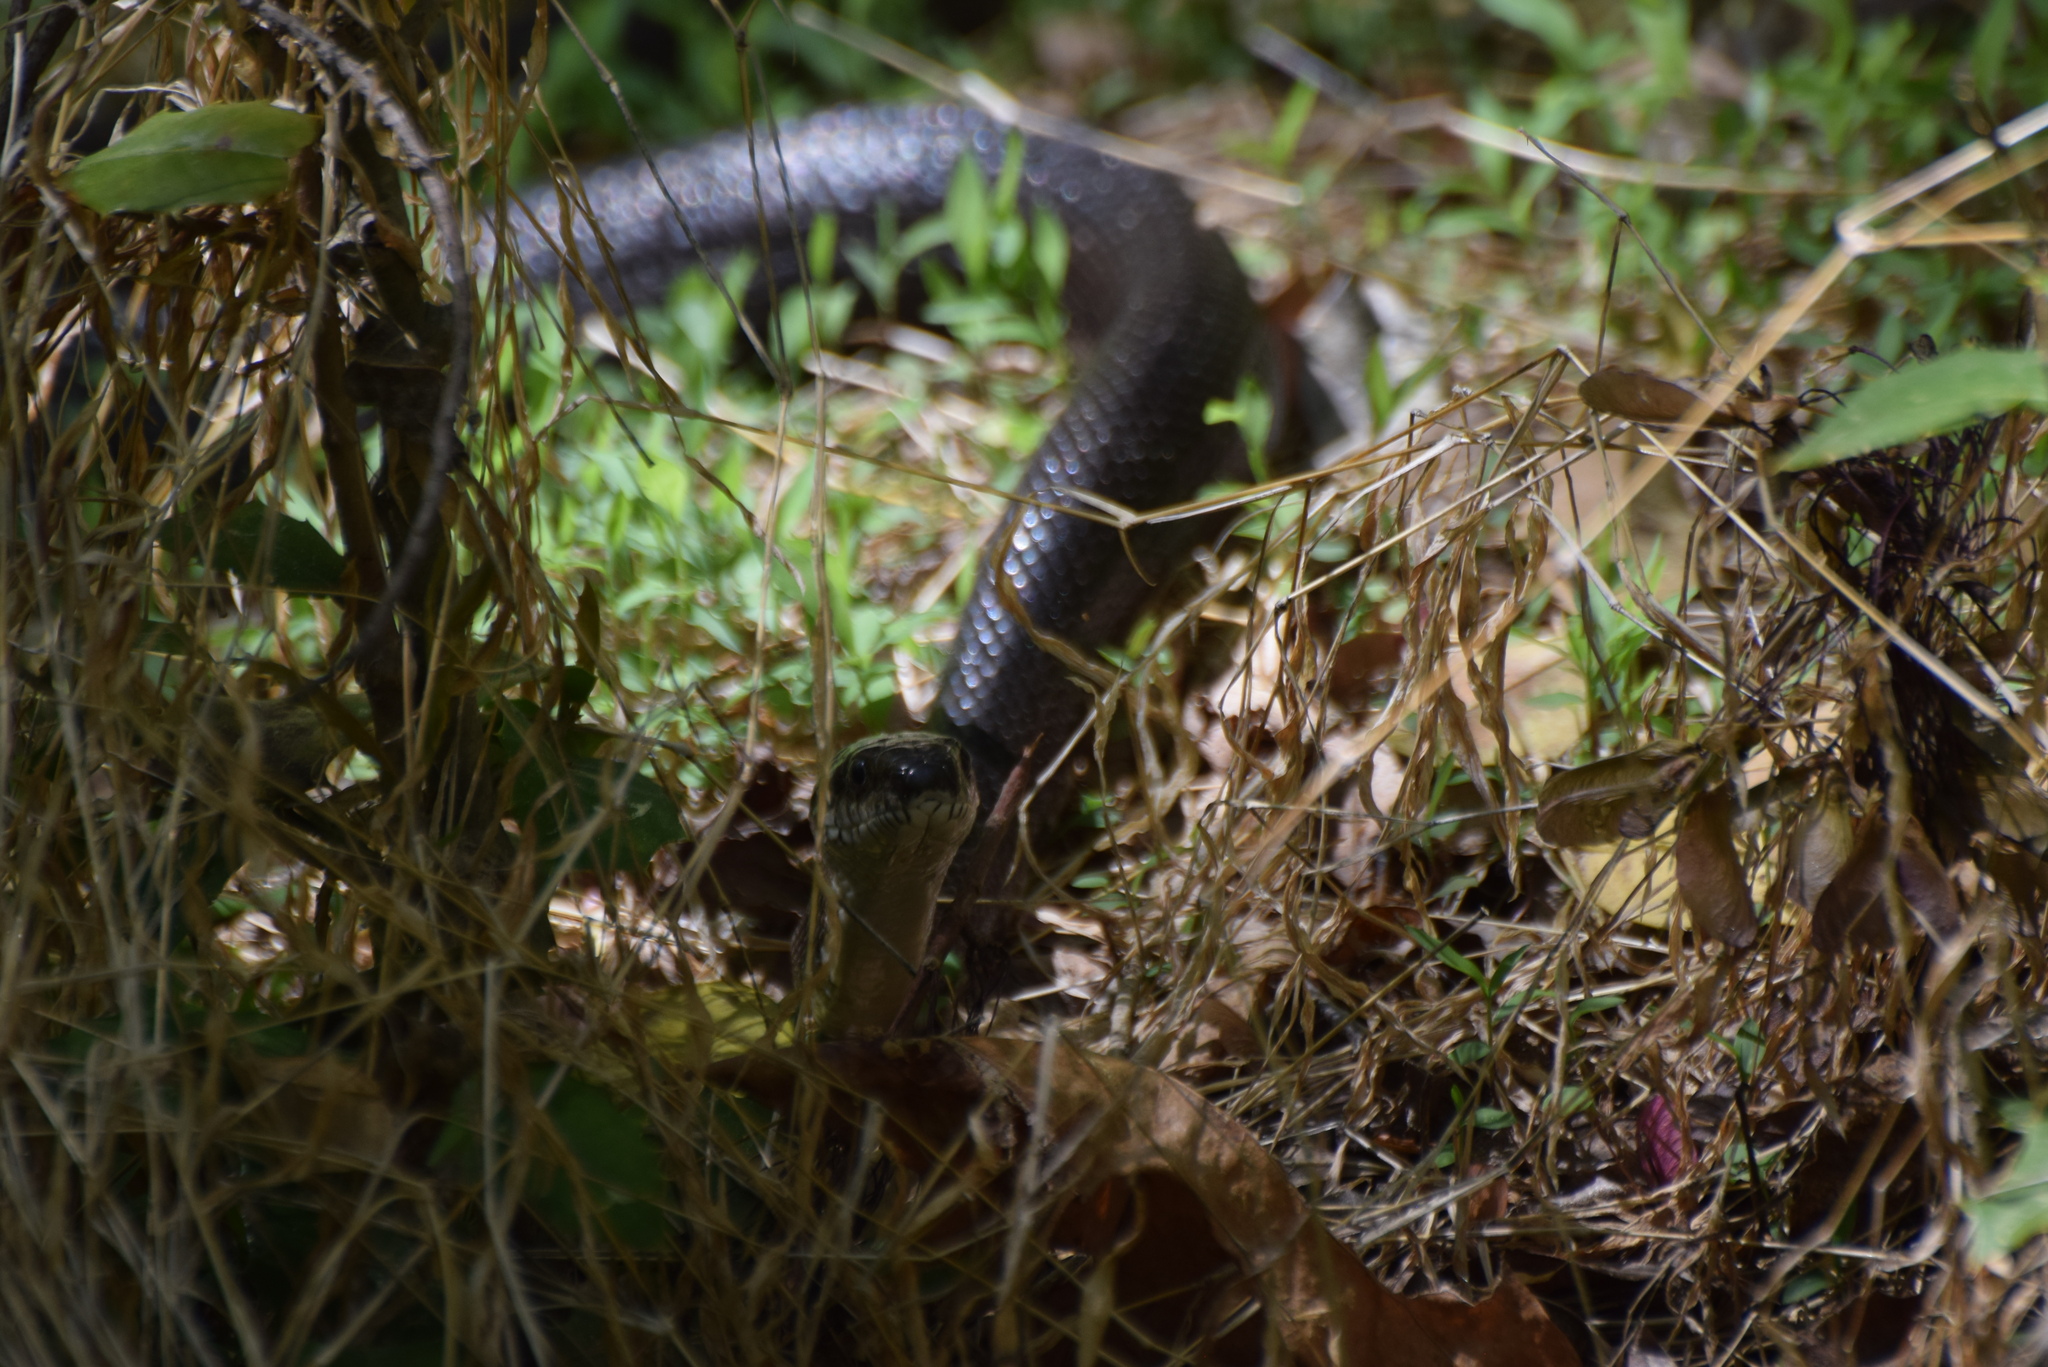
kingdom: Animalia
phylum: Chordata
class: Squamata
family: Colubridae
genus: Pantherophis
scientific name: Pantherophis alleghaniensis
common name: Eastern rat snake
